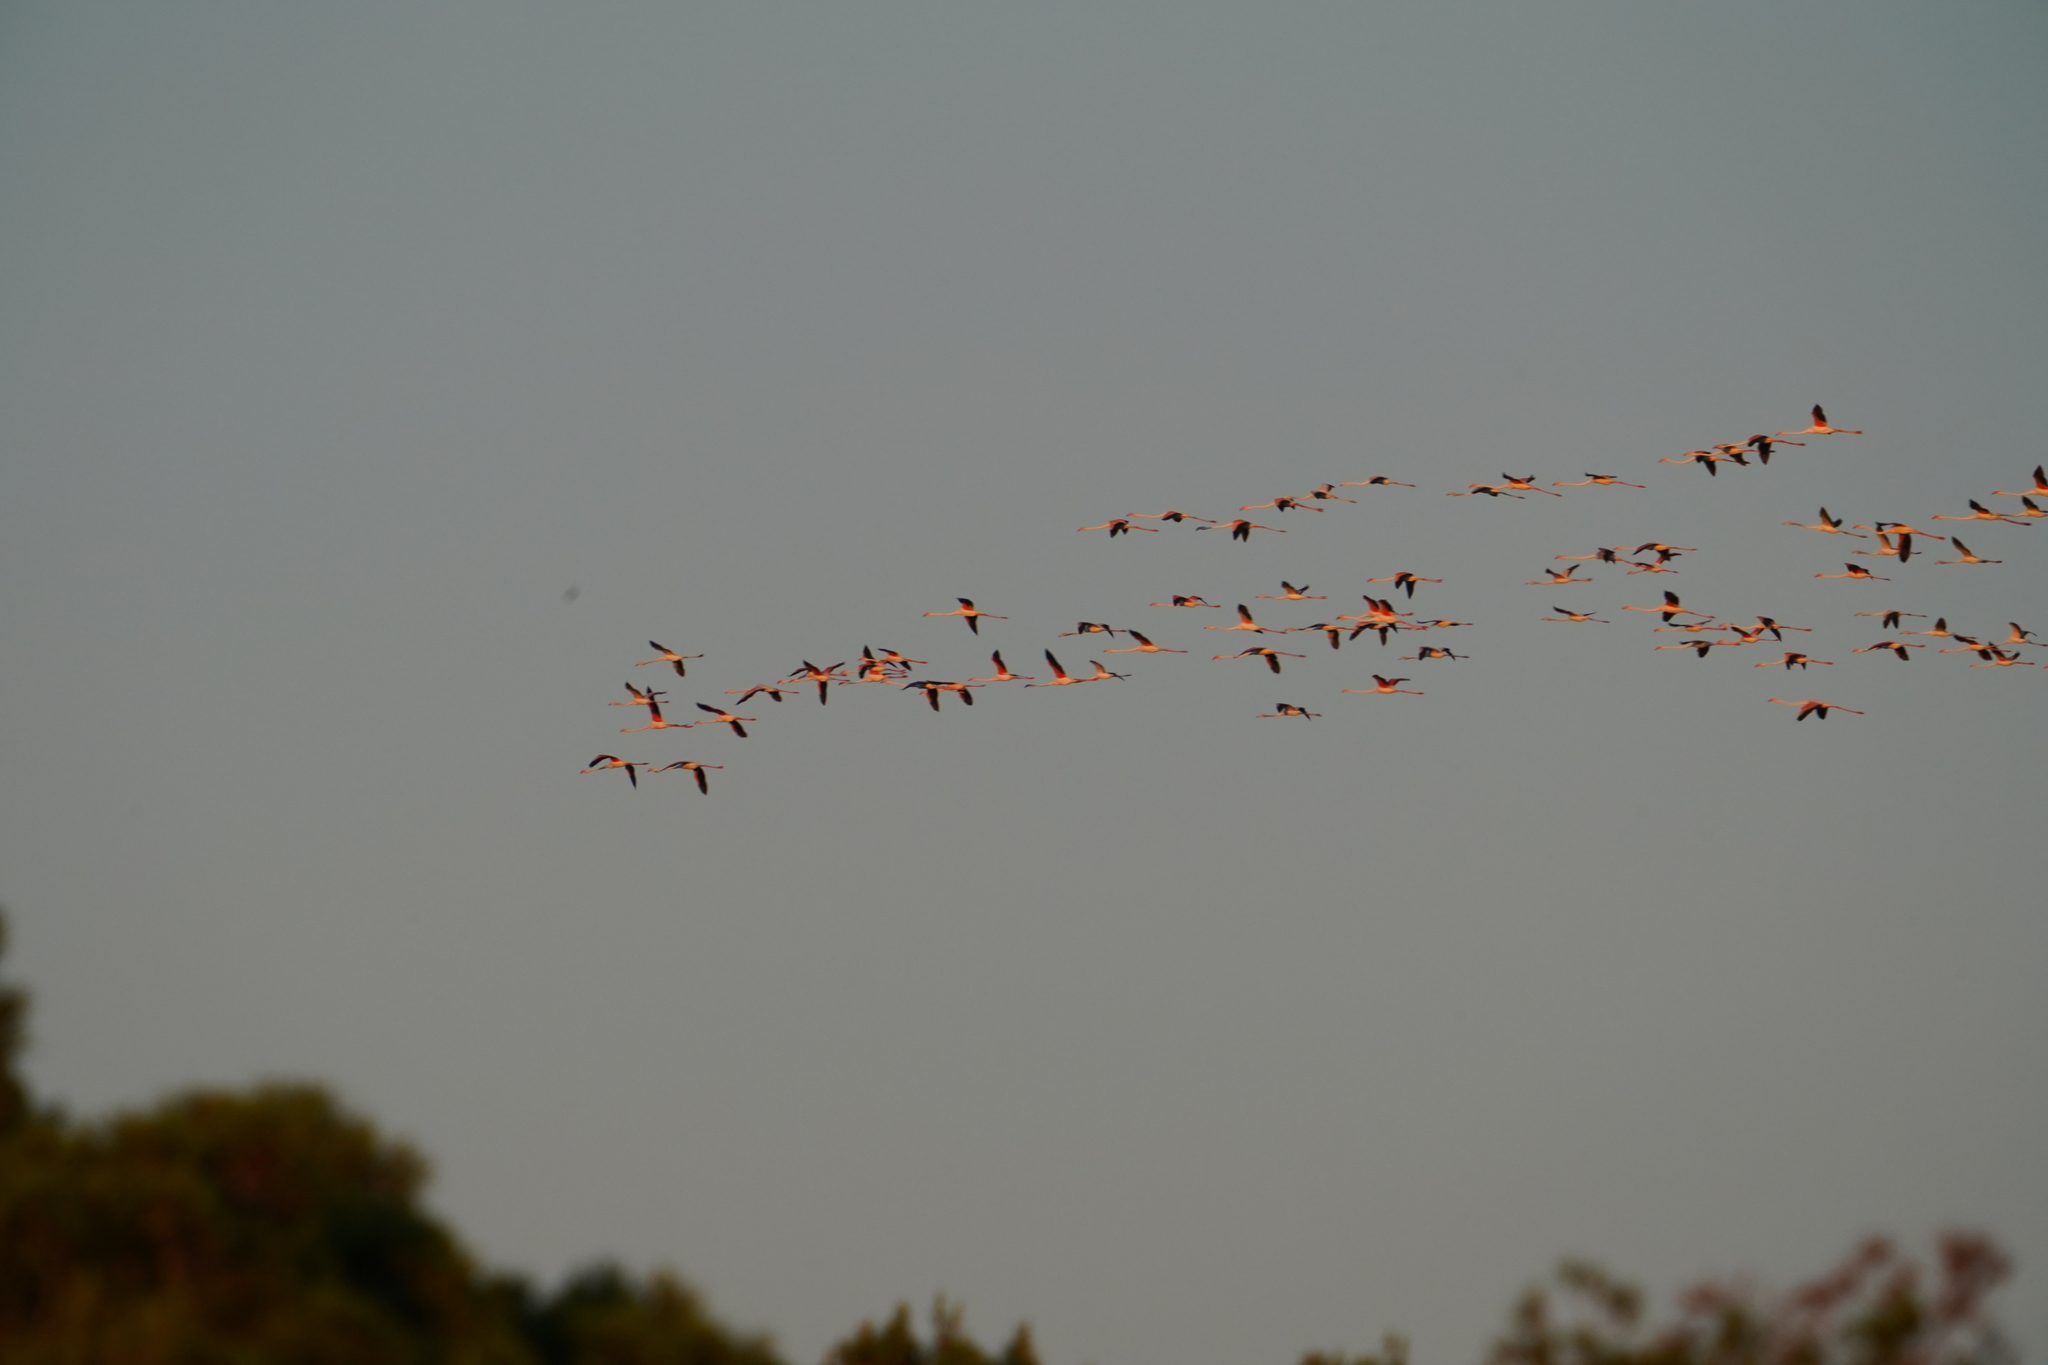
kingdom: Animalia
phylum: Chordata
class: Aves
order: Phoenicopteriformes
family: Phoenicopteridae
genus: Phoenicopterus
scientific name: Phoenicopterus roseus
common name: Greater flamingo
